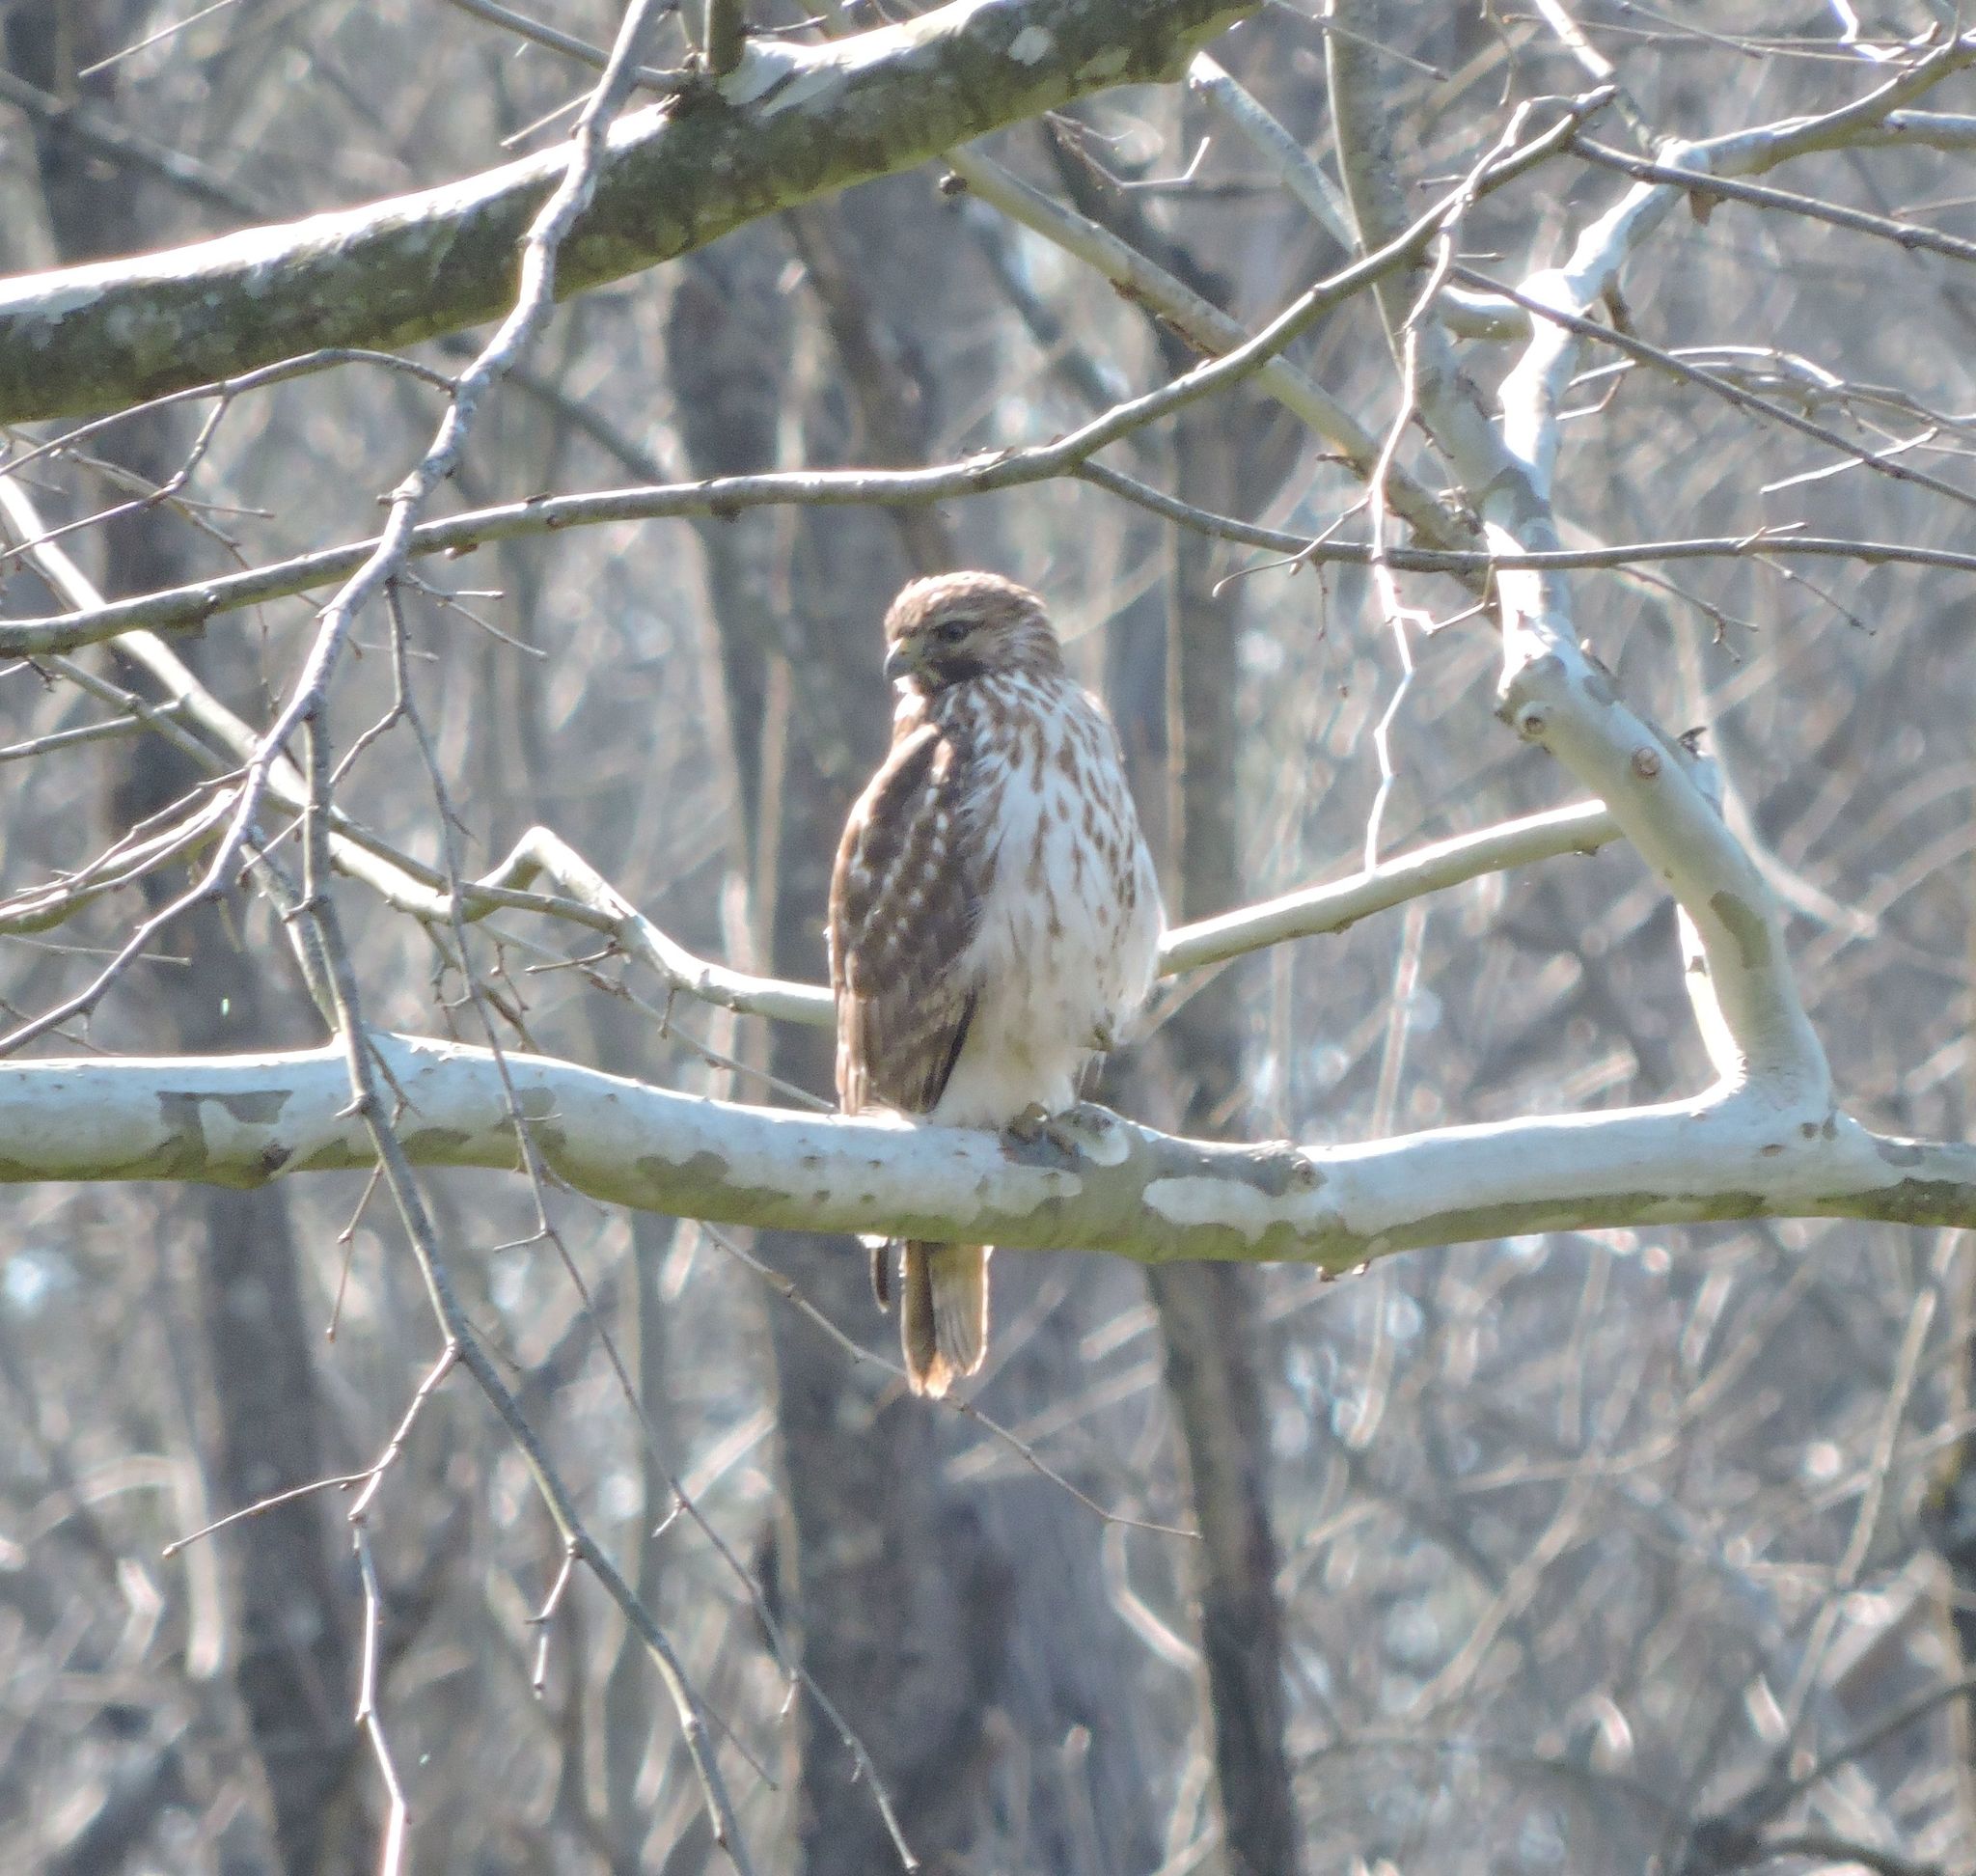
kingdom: Animalia
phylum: Chordata
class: Aves
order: Accipitriformes
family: Accipitridae
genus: Buteo
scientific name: Buteo lineatus
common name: Red-shouldered hawk
